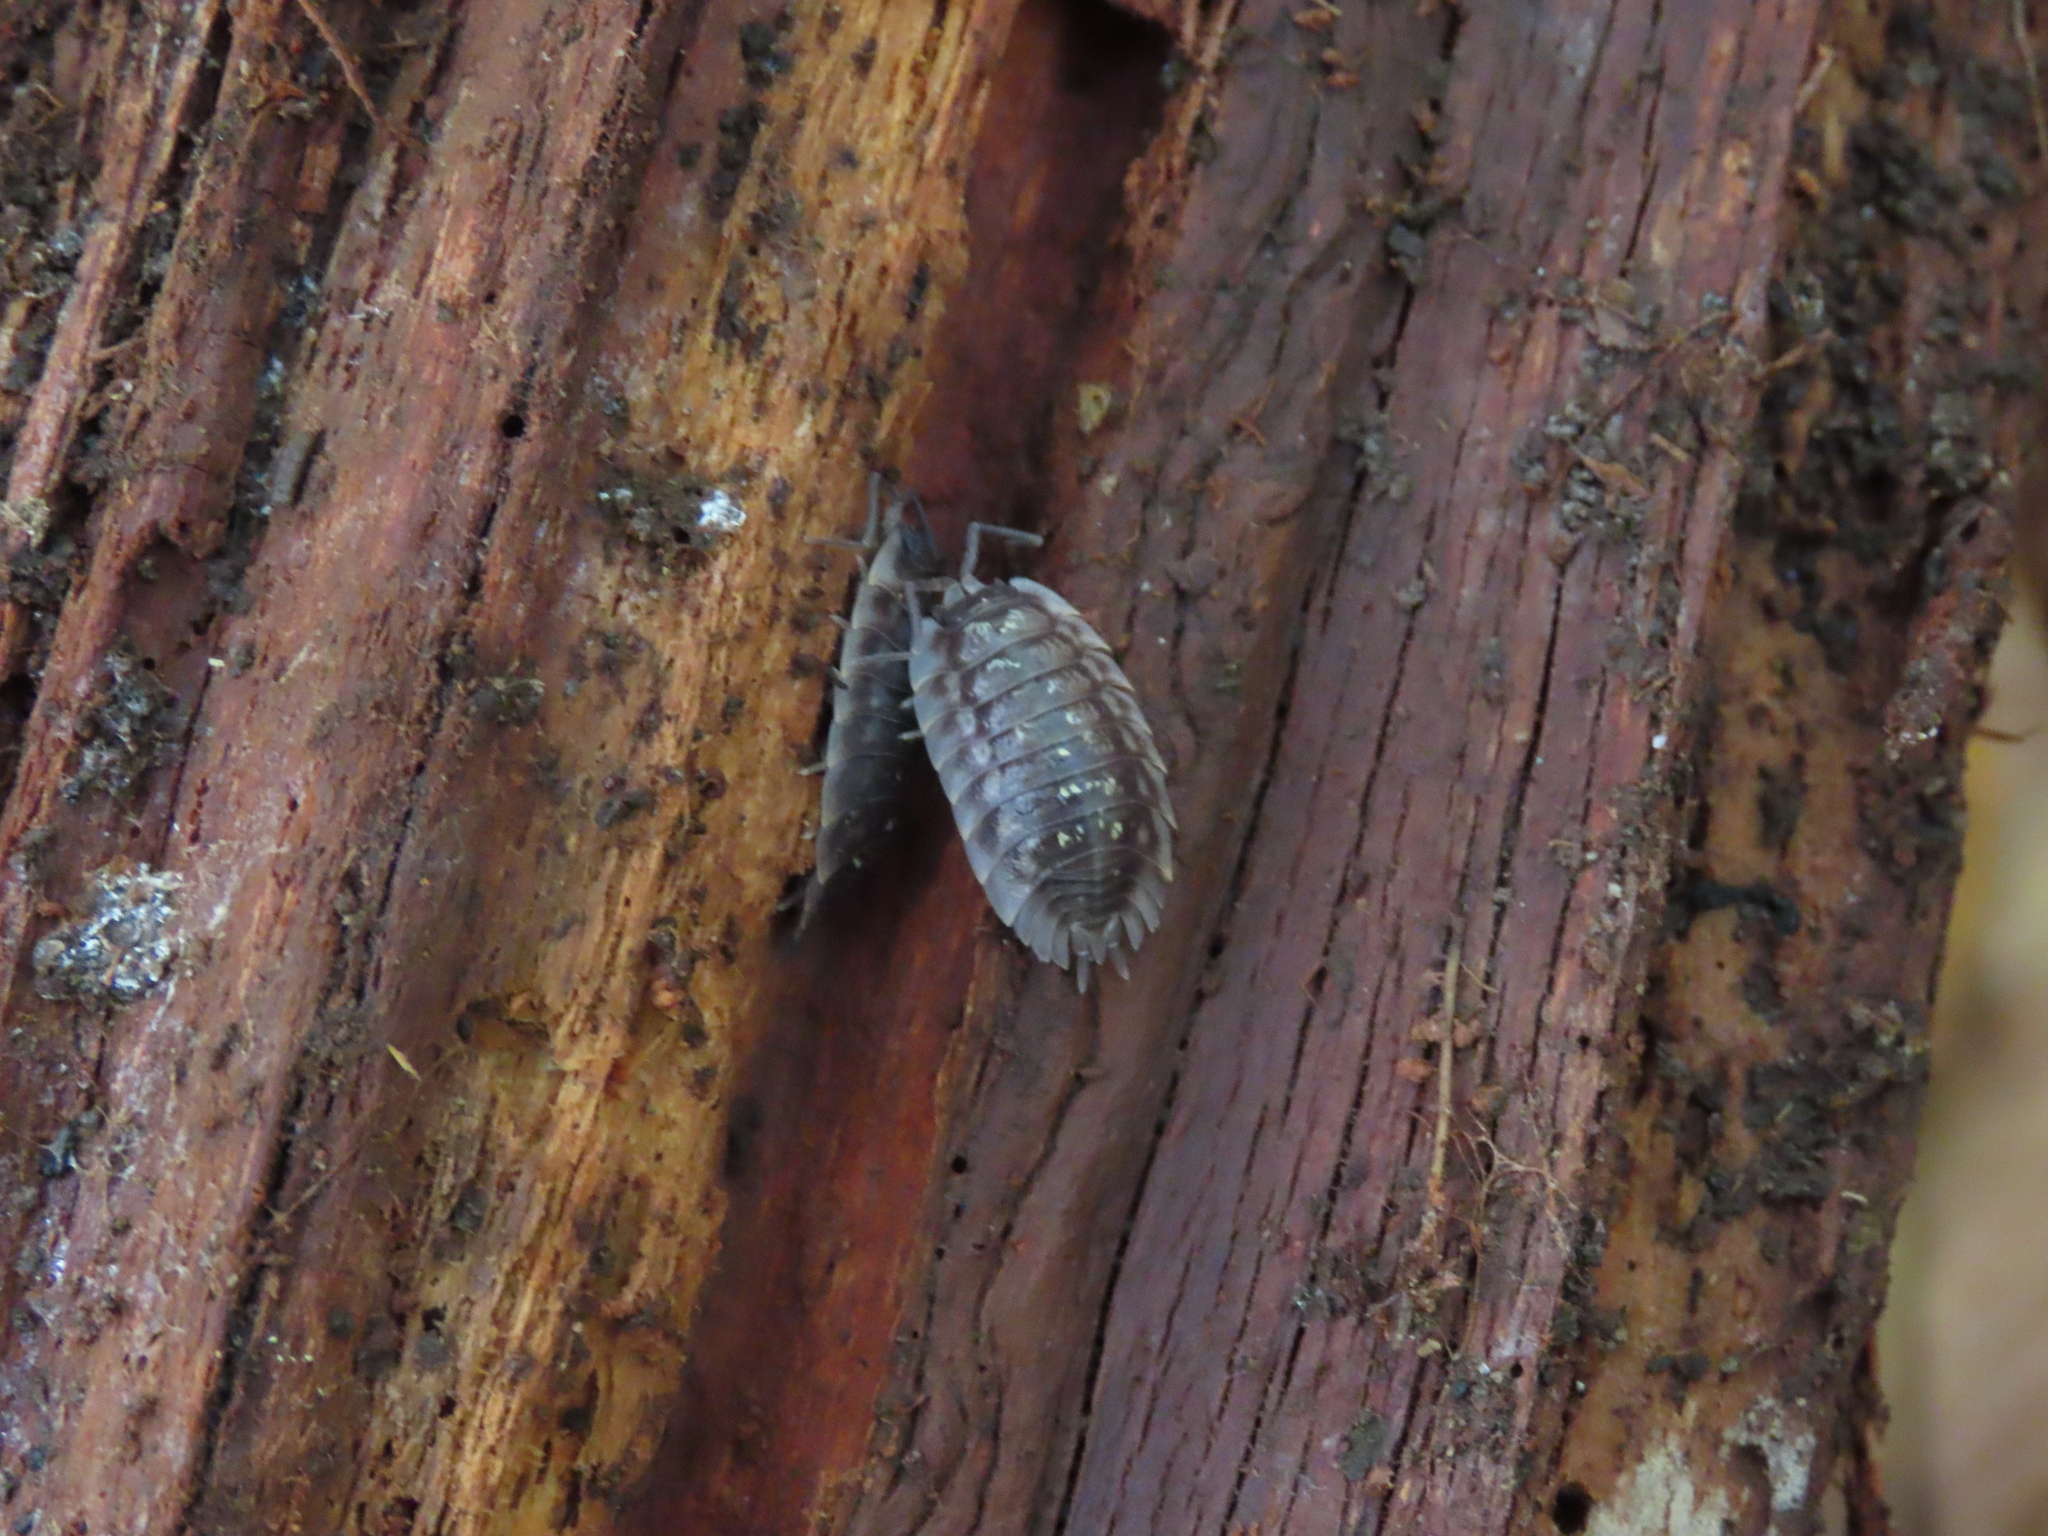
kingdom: Animalia
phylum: Arthropoda
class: Malacostraca
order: Isopoda
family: Oniscidae
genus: Oniscus
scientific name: Oniscus asellus
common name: Common shiny woodlouse
